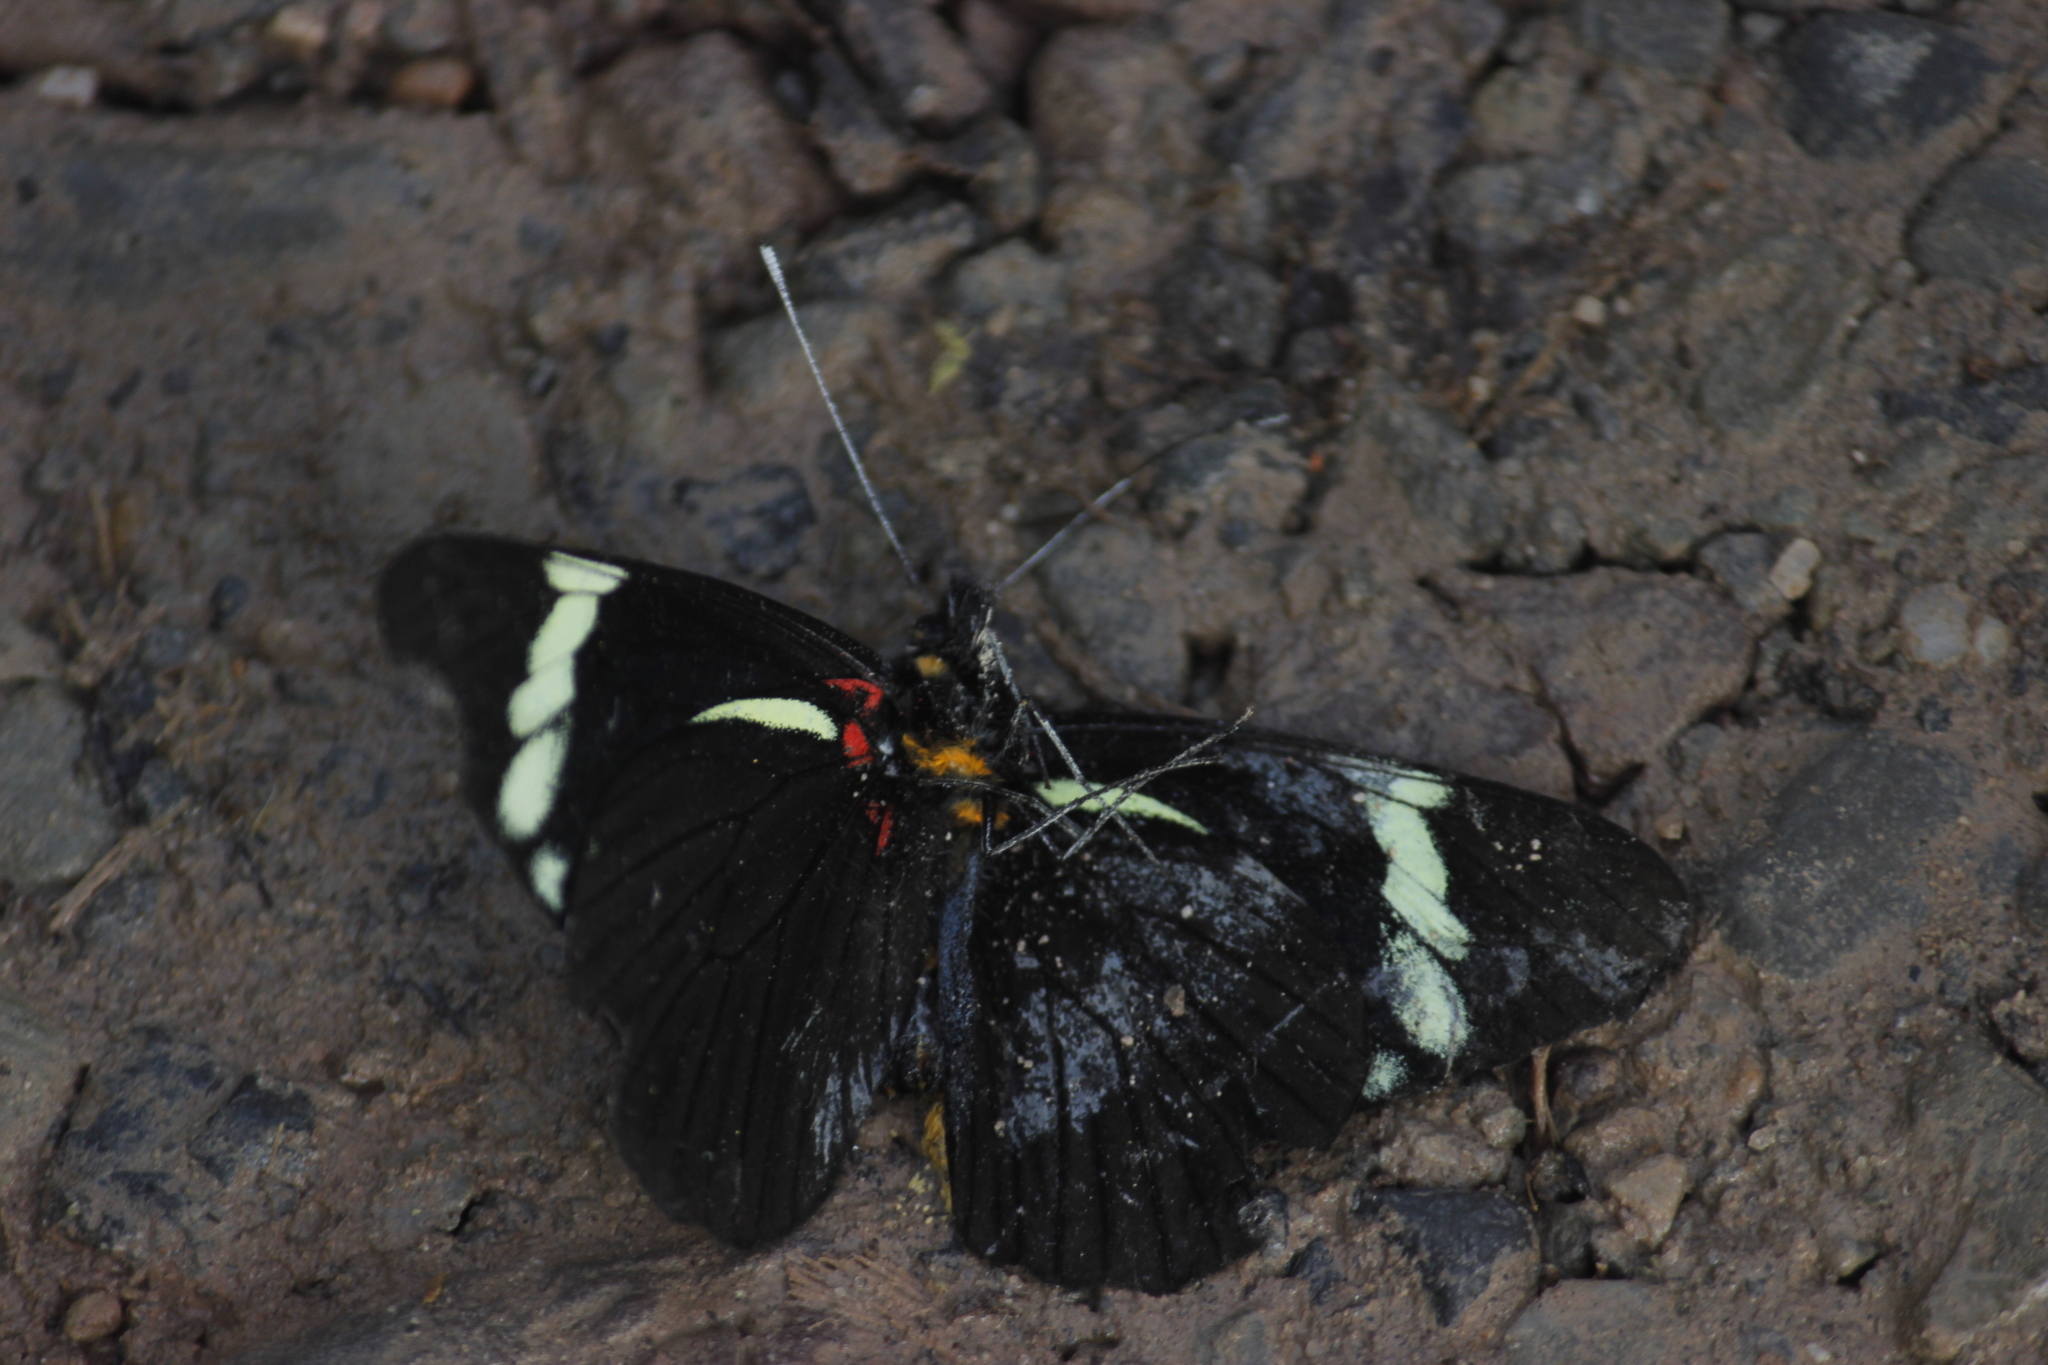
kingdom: Animalia
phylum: Arthropoda
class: Insecta
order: Lepidoptera
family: Pieridae
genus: Pereute
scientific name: Pereute lindemannae
